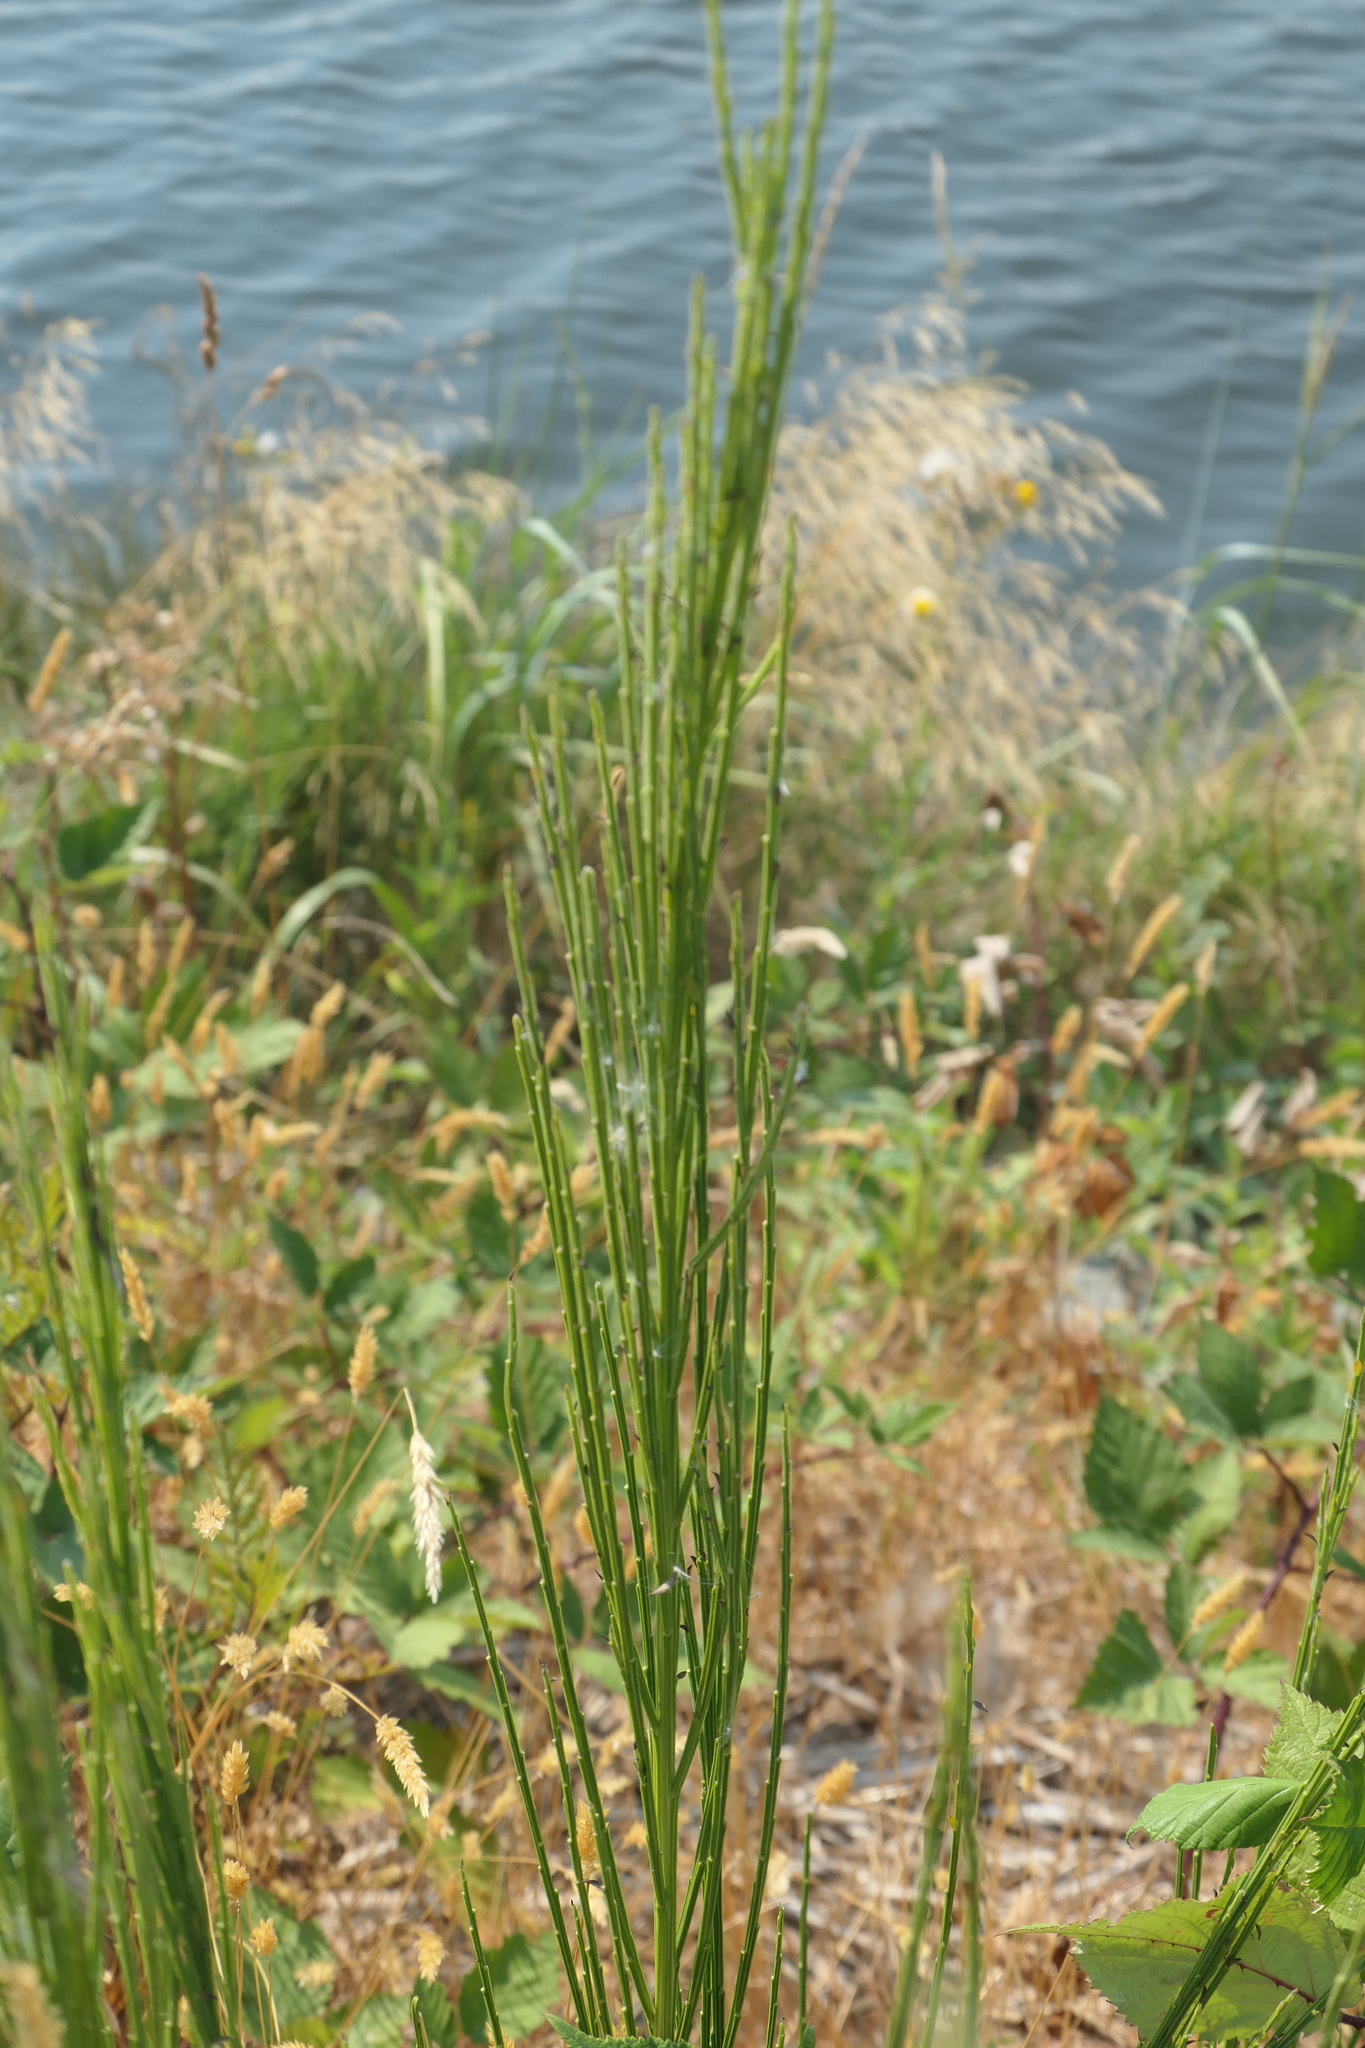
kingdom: Plantae
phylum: Tracheophyta
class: Magnoliopsida
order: Fabales
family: Fabaceae
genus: Cytisus
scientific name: Cytisus scoparius
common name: Scotch broom
